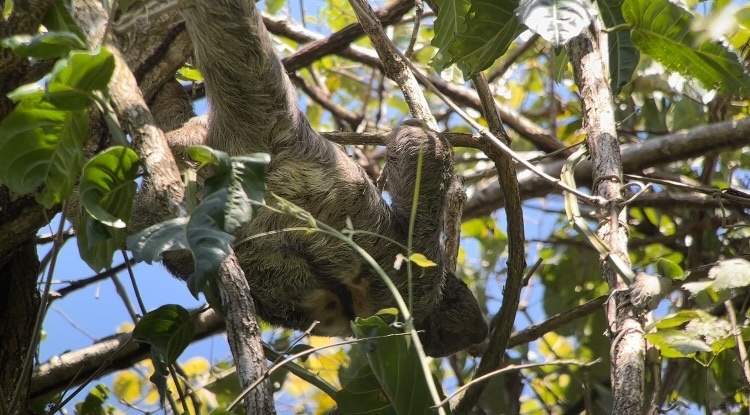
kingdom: Animalia
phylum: Chordata
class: Mammalia
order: Pilosa
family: Bradypodidae
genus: Bradypus
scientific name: Bradypus variegatus
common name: Brown-throated three-toed sloth
